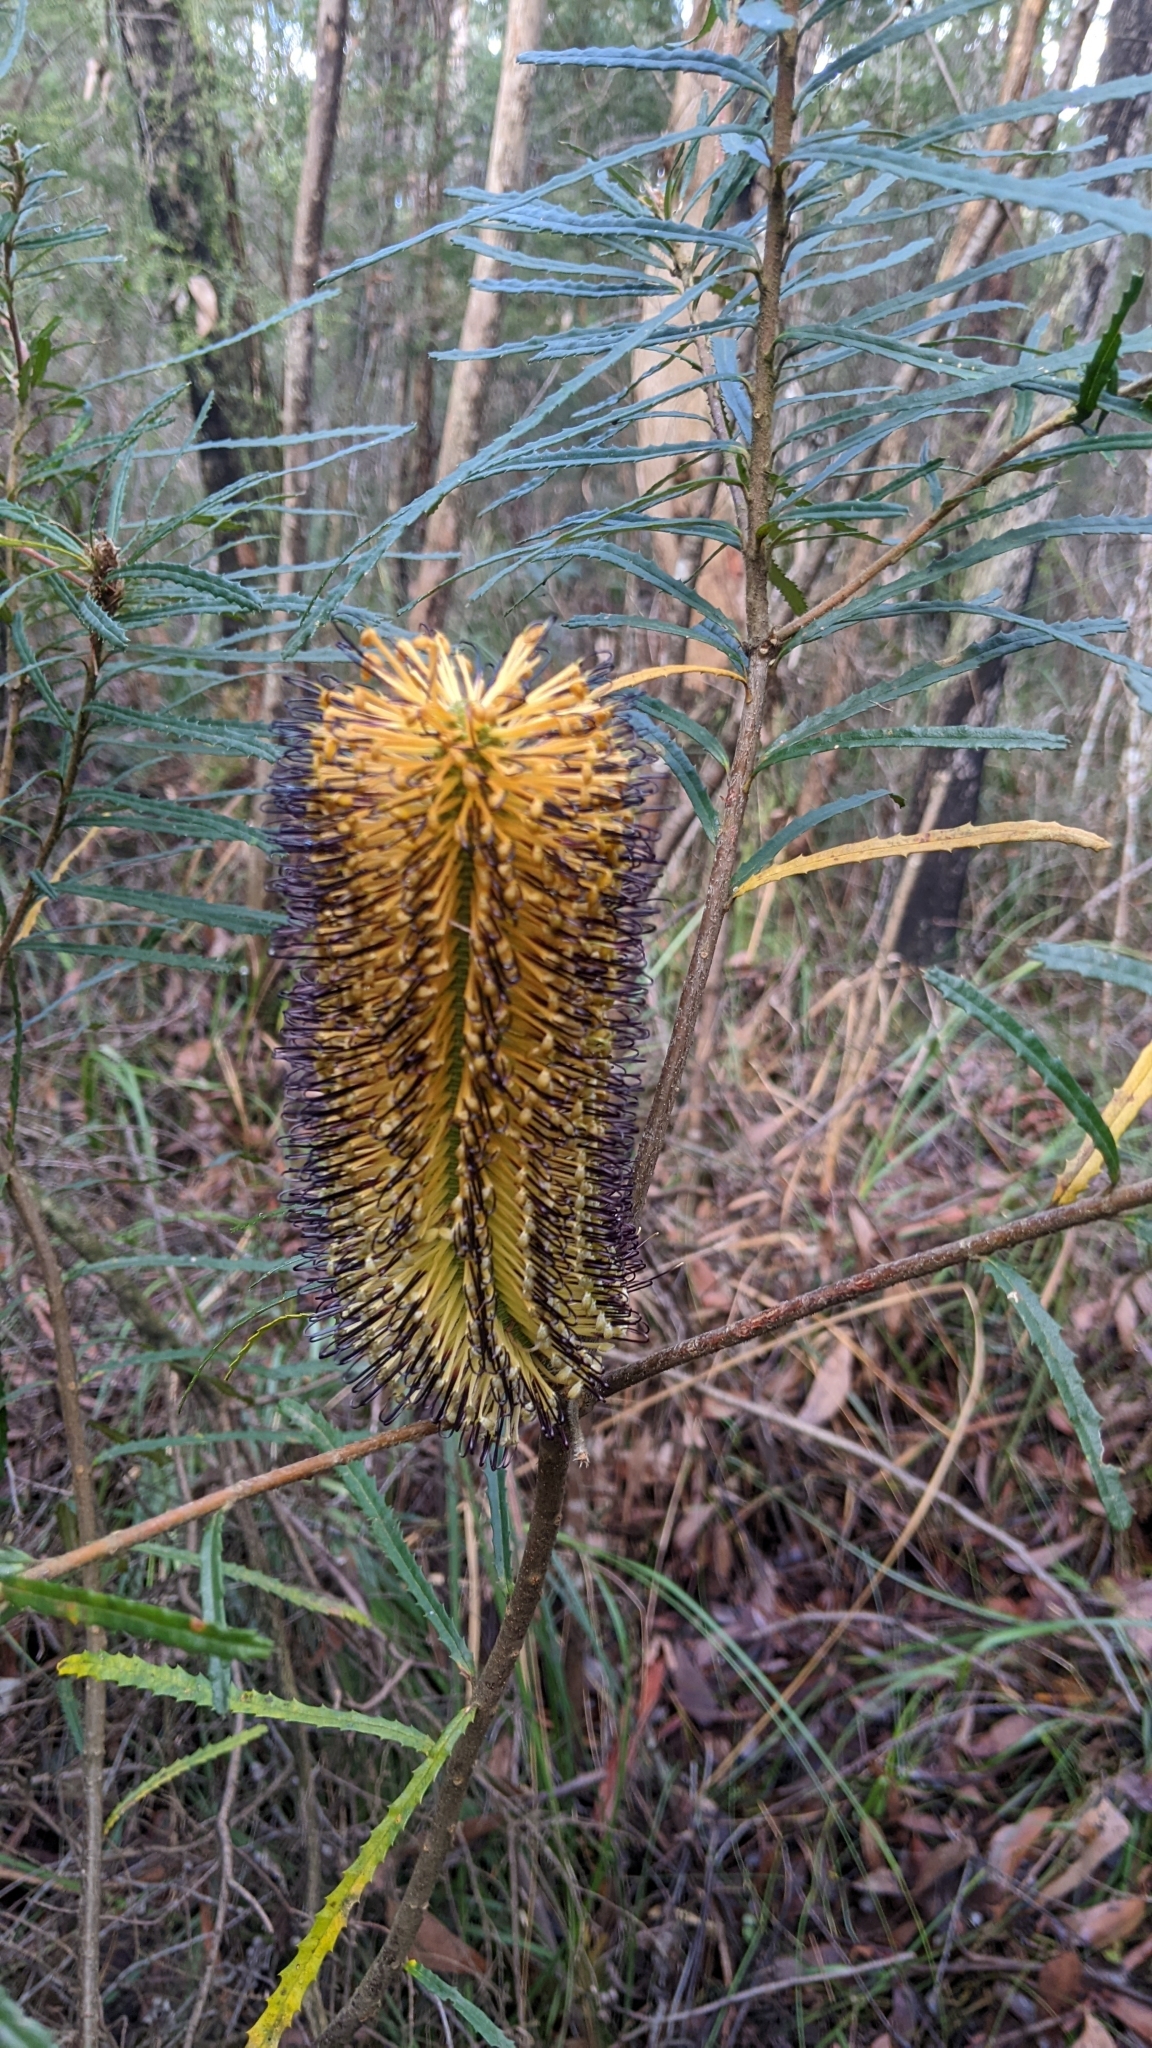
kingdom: Plantae
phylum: Tracheophyta
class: Magnoliopsida
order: Proteales
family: Proteaceae
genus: Banksia
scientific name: Banksia spinulosa
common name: Hairpin banksia
